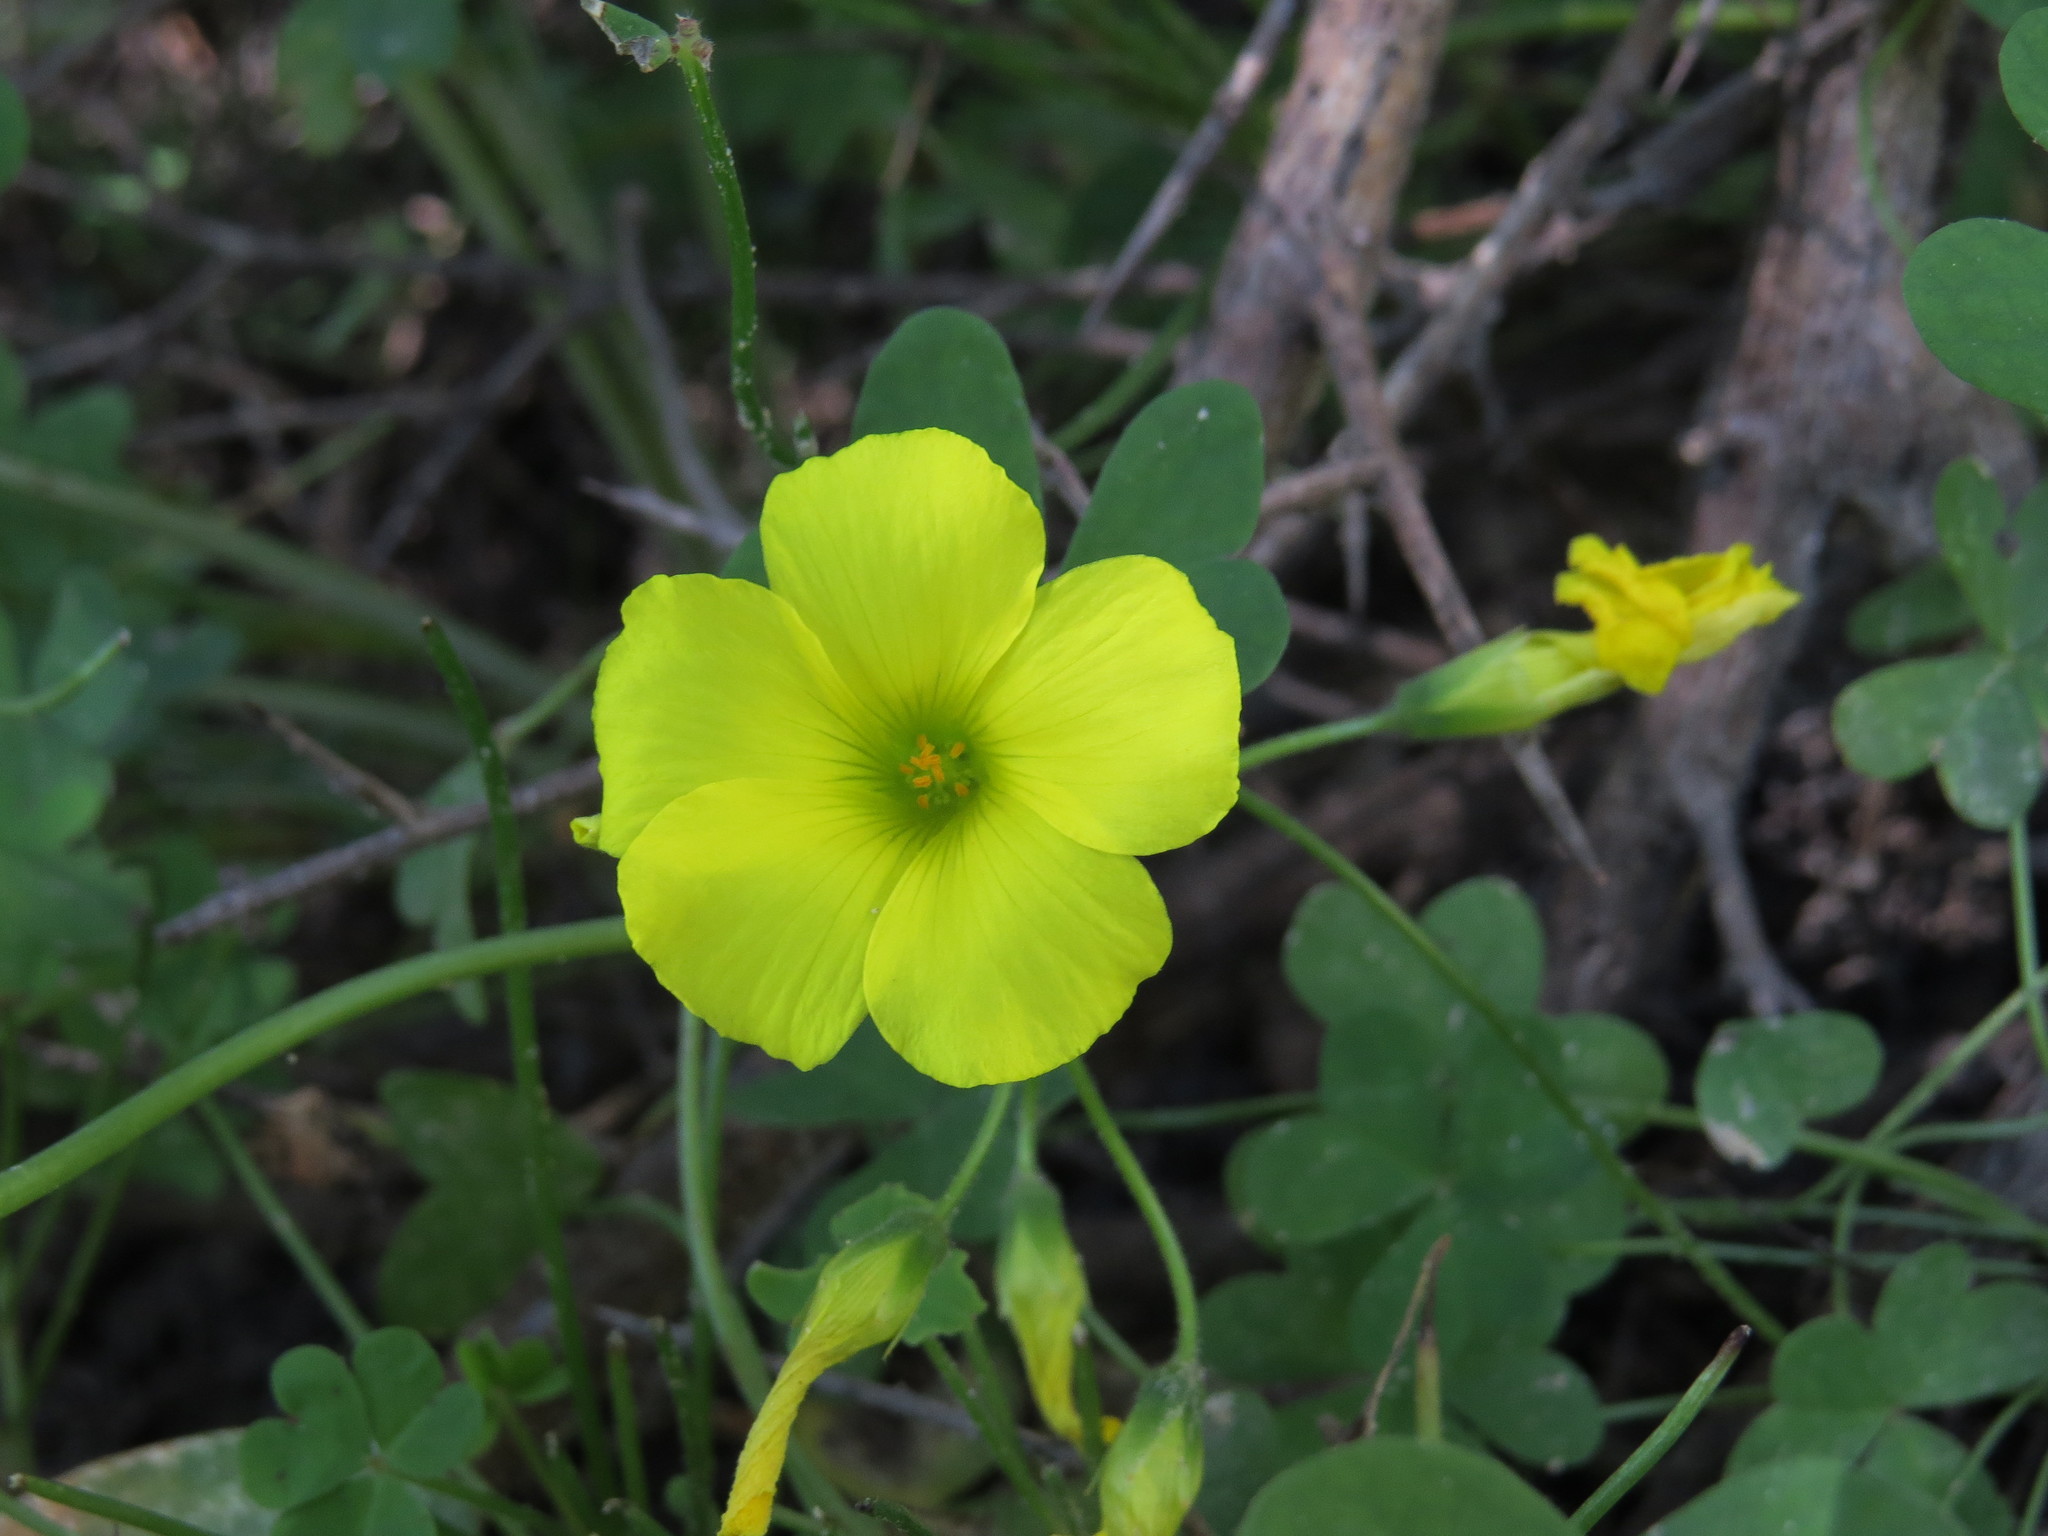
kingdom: Plantae
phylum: Tracheophyta
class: Magnoliopsida
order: Oxalidales
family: Oxalidaceae
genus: Oxalis
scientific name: Oxalis pes-caprae
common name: Bermuda-buttercup
